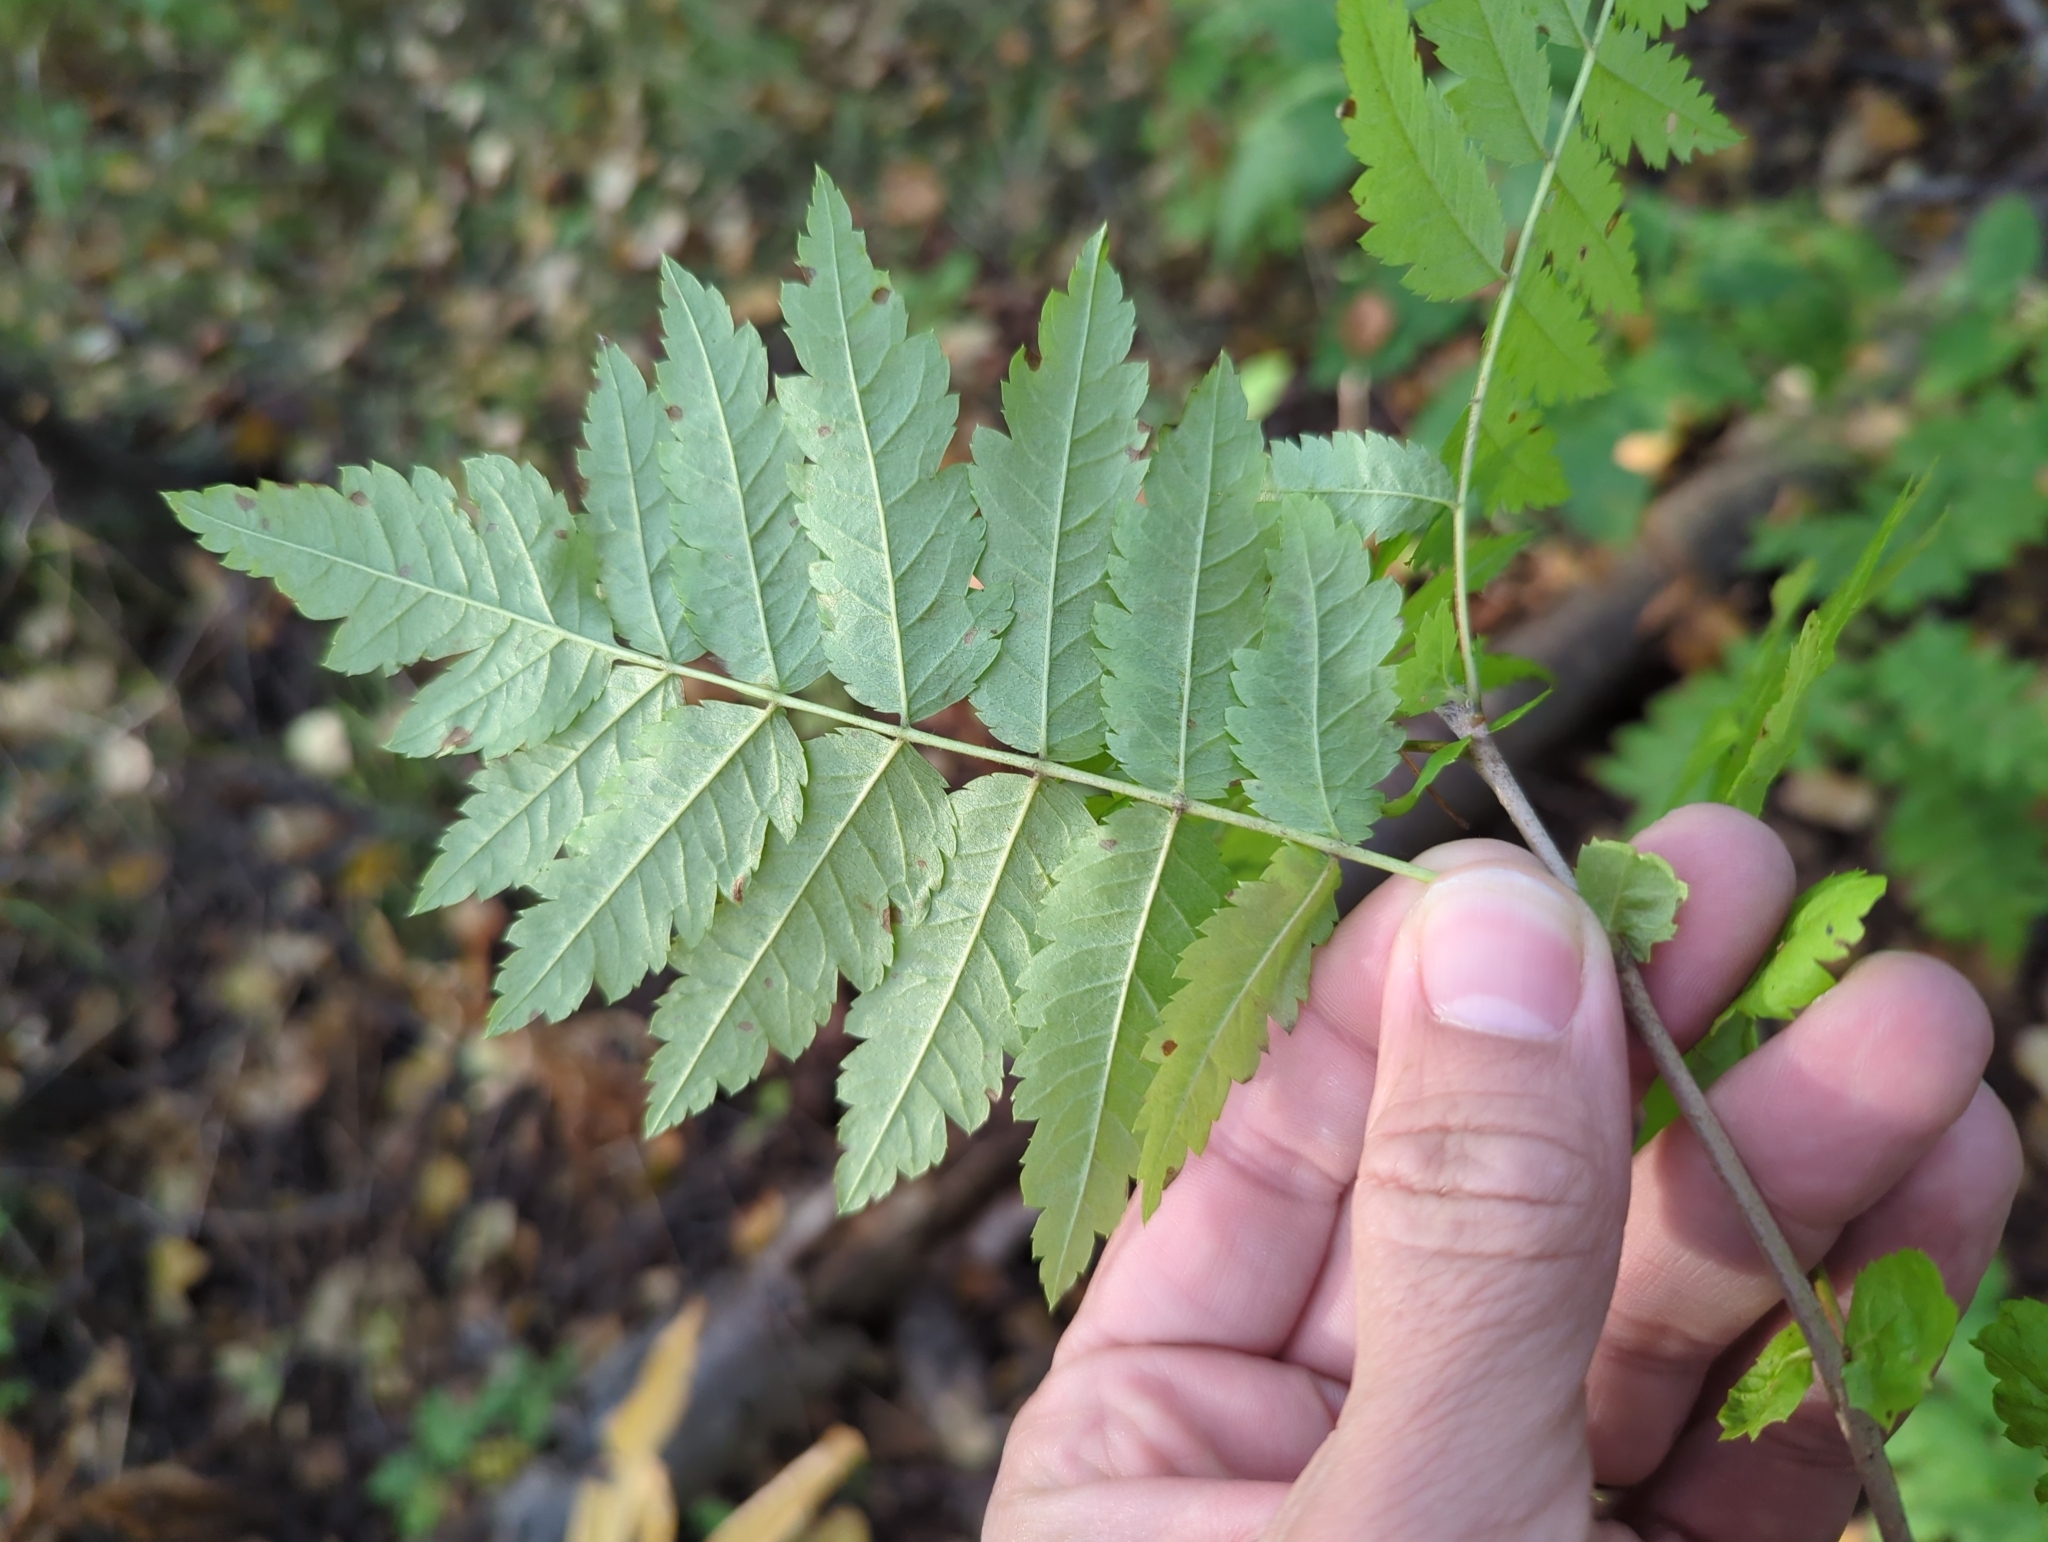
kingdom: Plantae
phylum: Tracheophyta
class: Magnoliopsida
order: Rosales
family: Rosaceae
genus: Sorbus
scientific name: Sorbus aucuparia
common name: Rowan
